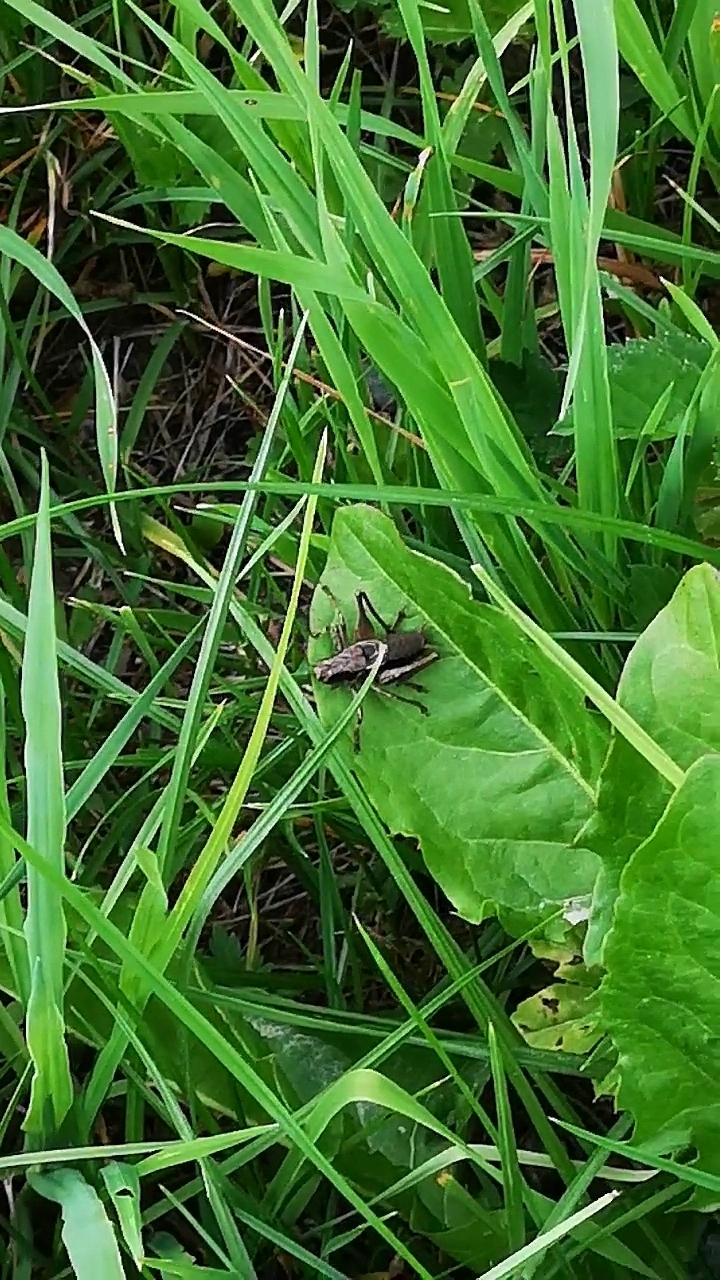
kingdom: Animalia
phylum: Arthropoda
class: Insecta
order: Orthoptera
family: Tettigoniidae
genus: Pholidoptera
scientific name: Pholidoptera griseoaptera
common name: Dark bush-cricket
